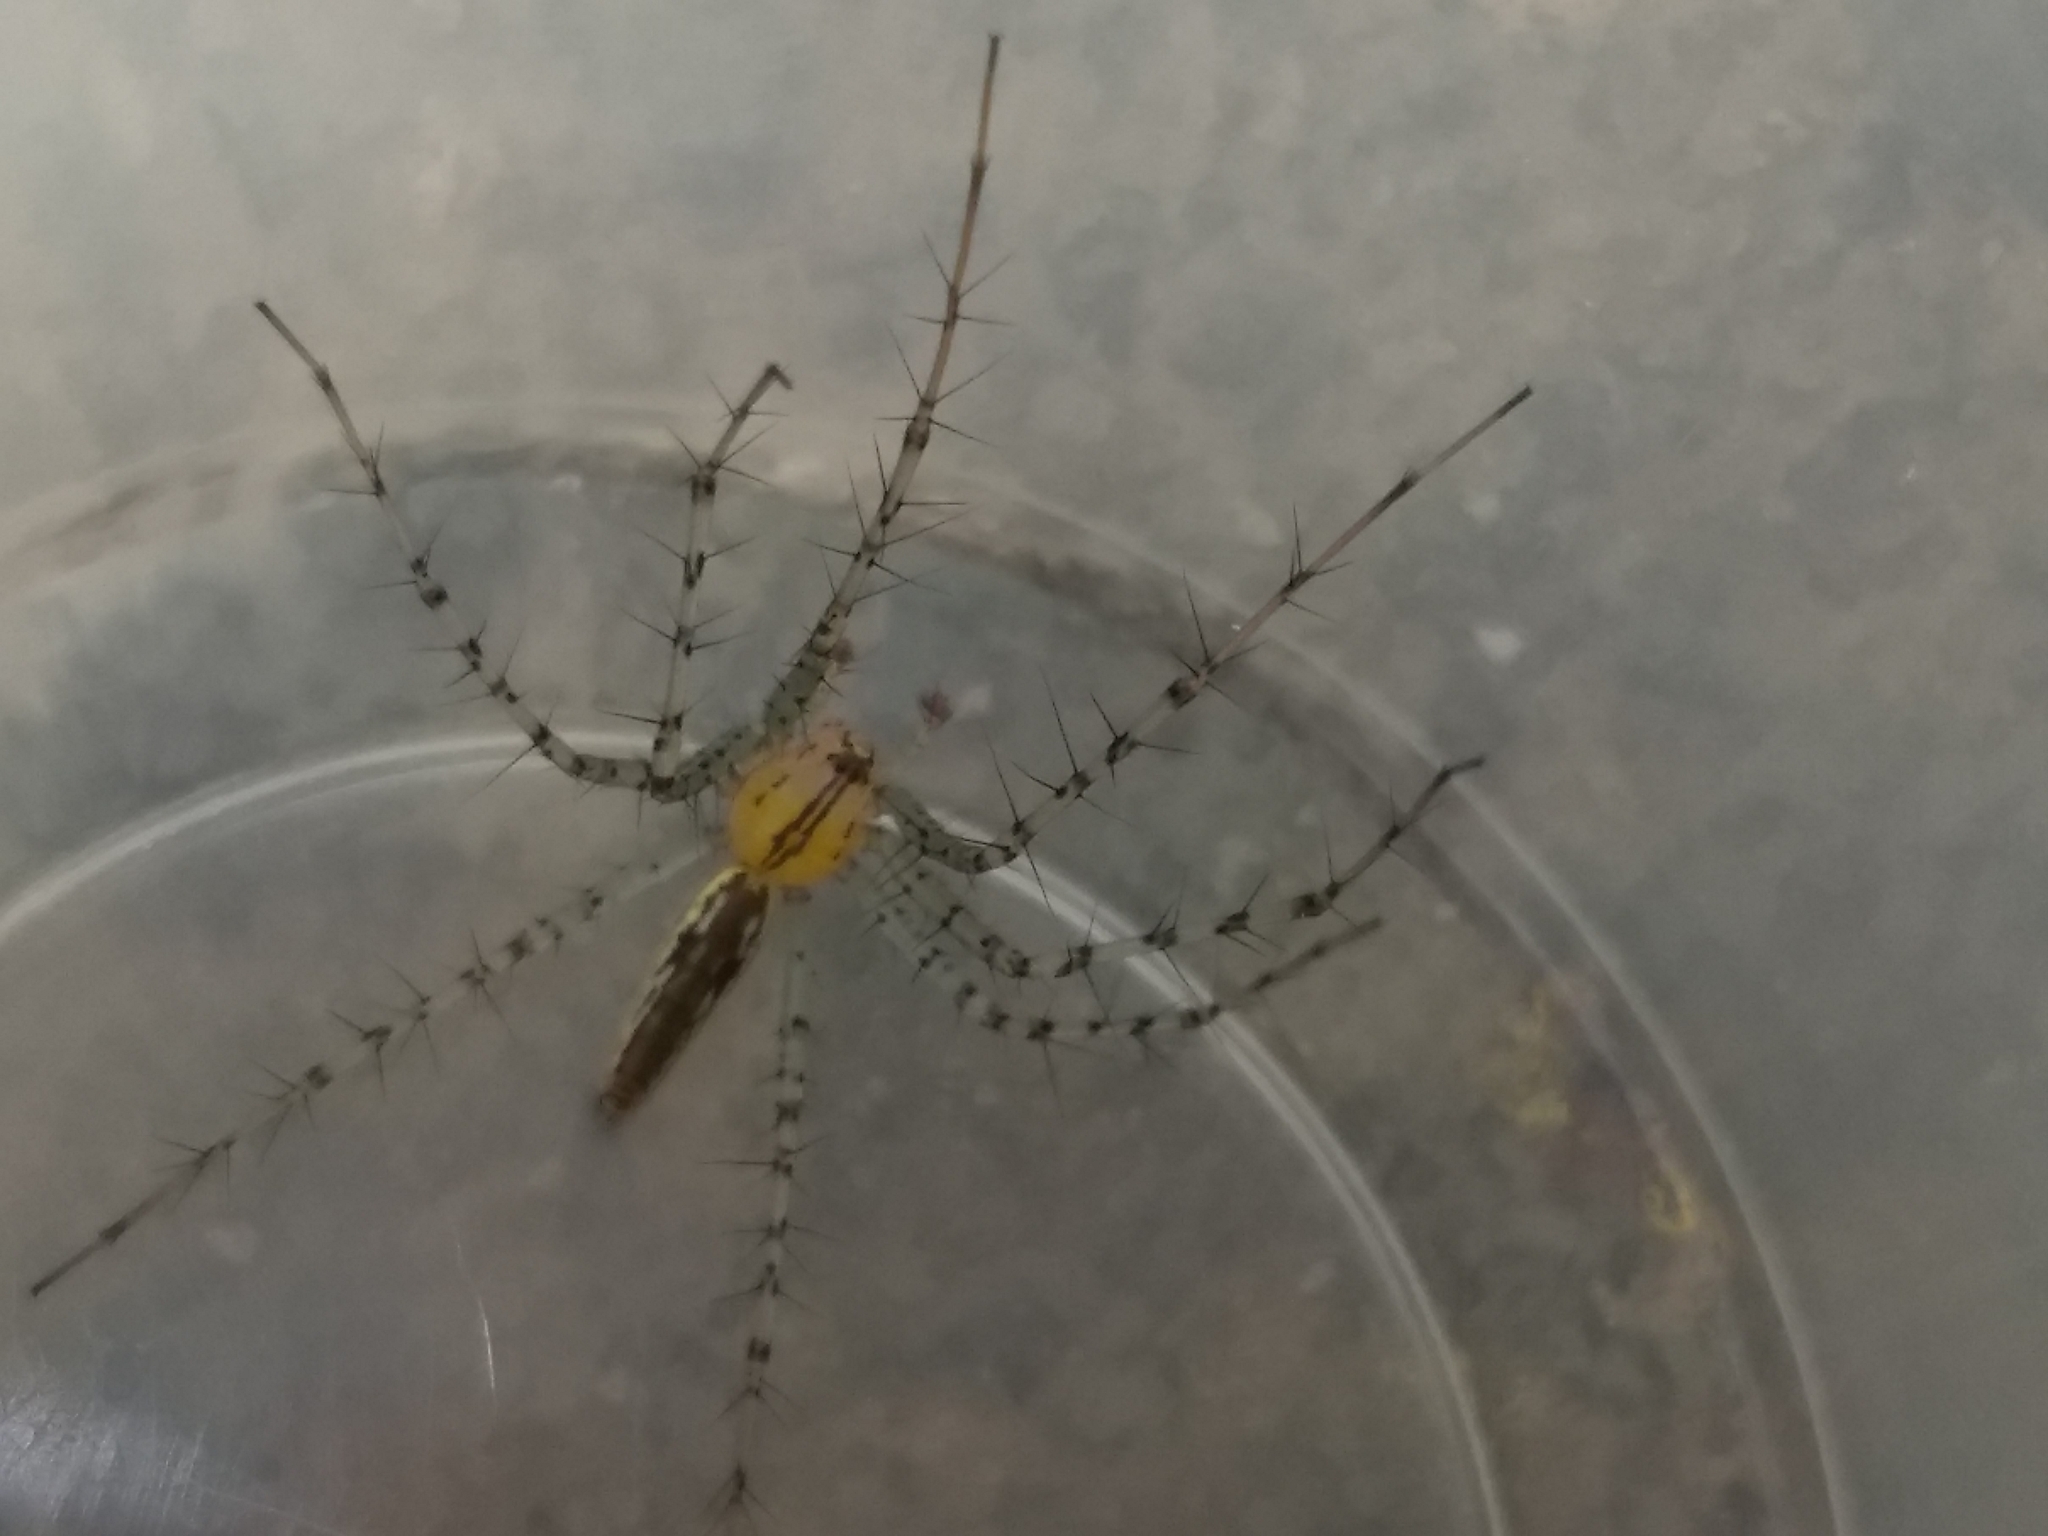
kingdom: Animalia
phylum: Arthropoda
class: Arachnida
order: Araneae
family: Oxyopidae
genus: Peucetia
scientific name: Peucetia rubrolineata
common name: Lynx spiders
